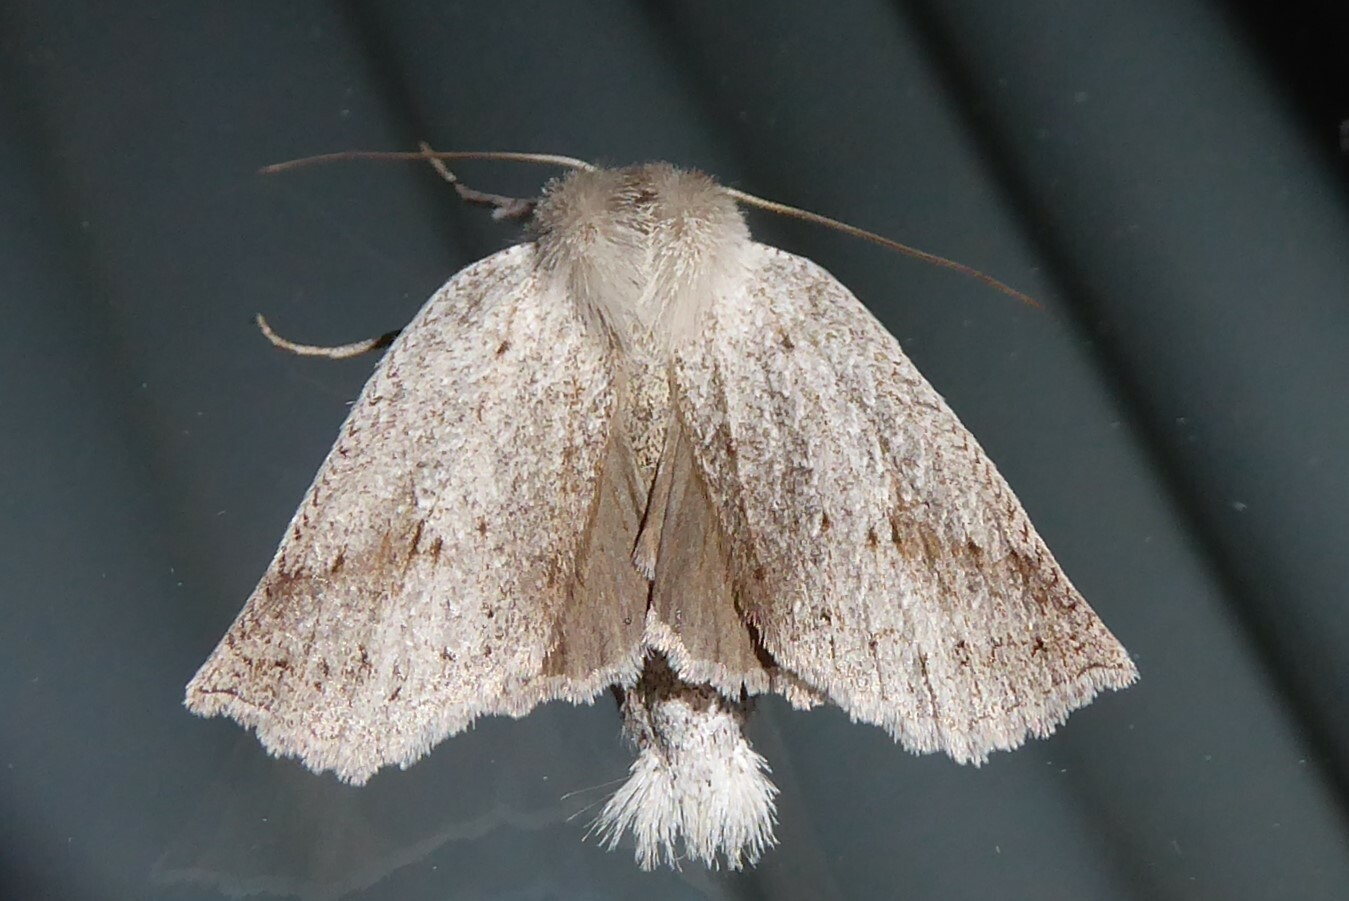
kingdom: Animalia
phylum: Arthropoda
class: Insecta
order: Lepidoptera
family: Geometridae
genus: Declana
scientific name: Declana leptomera
